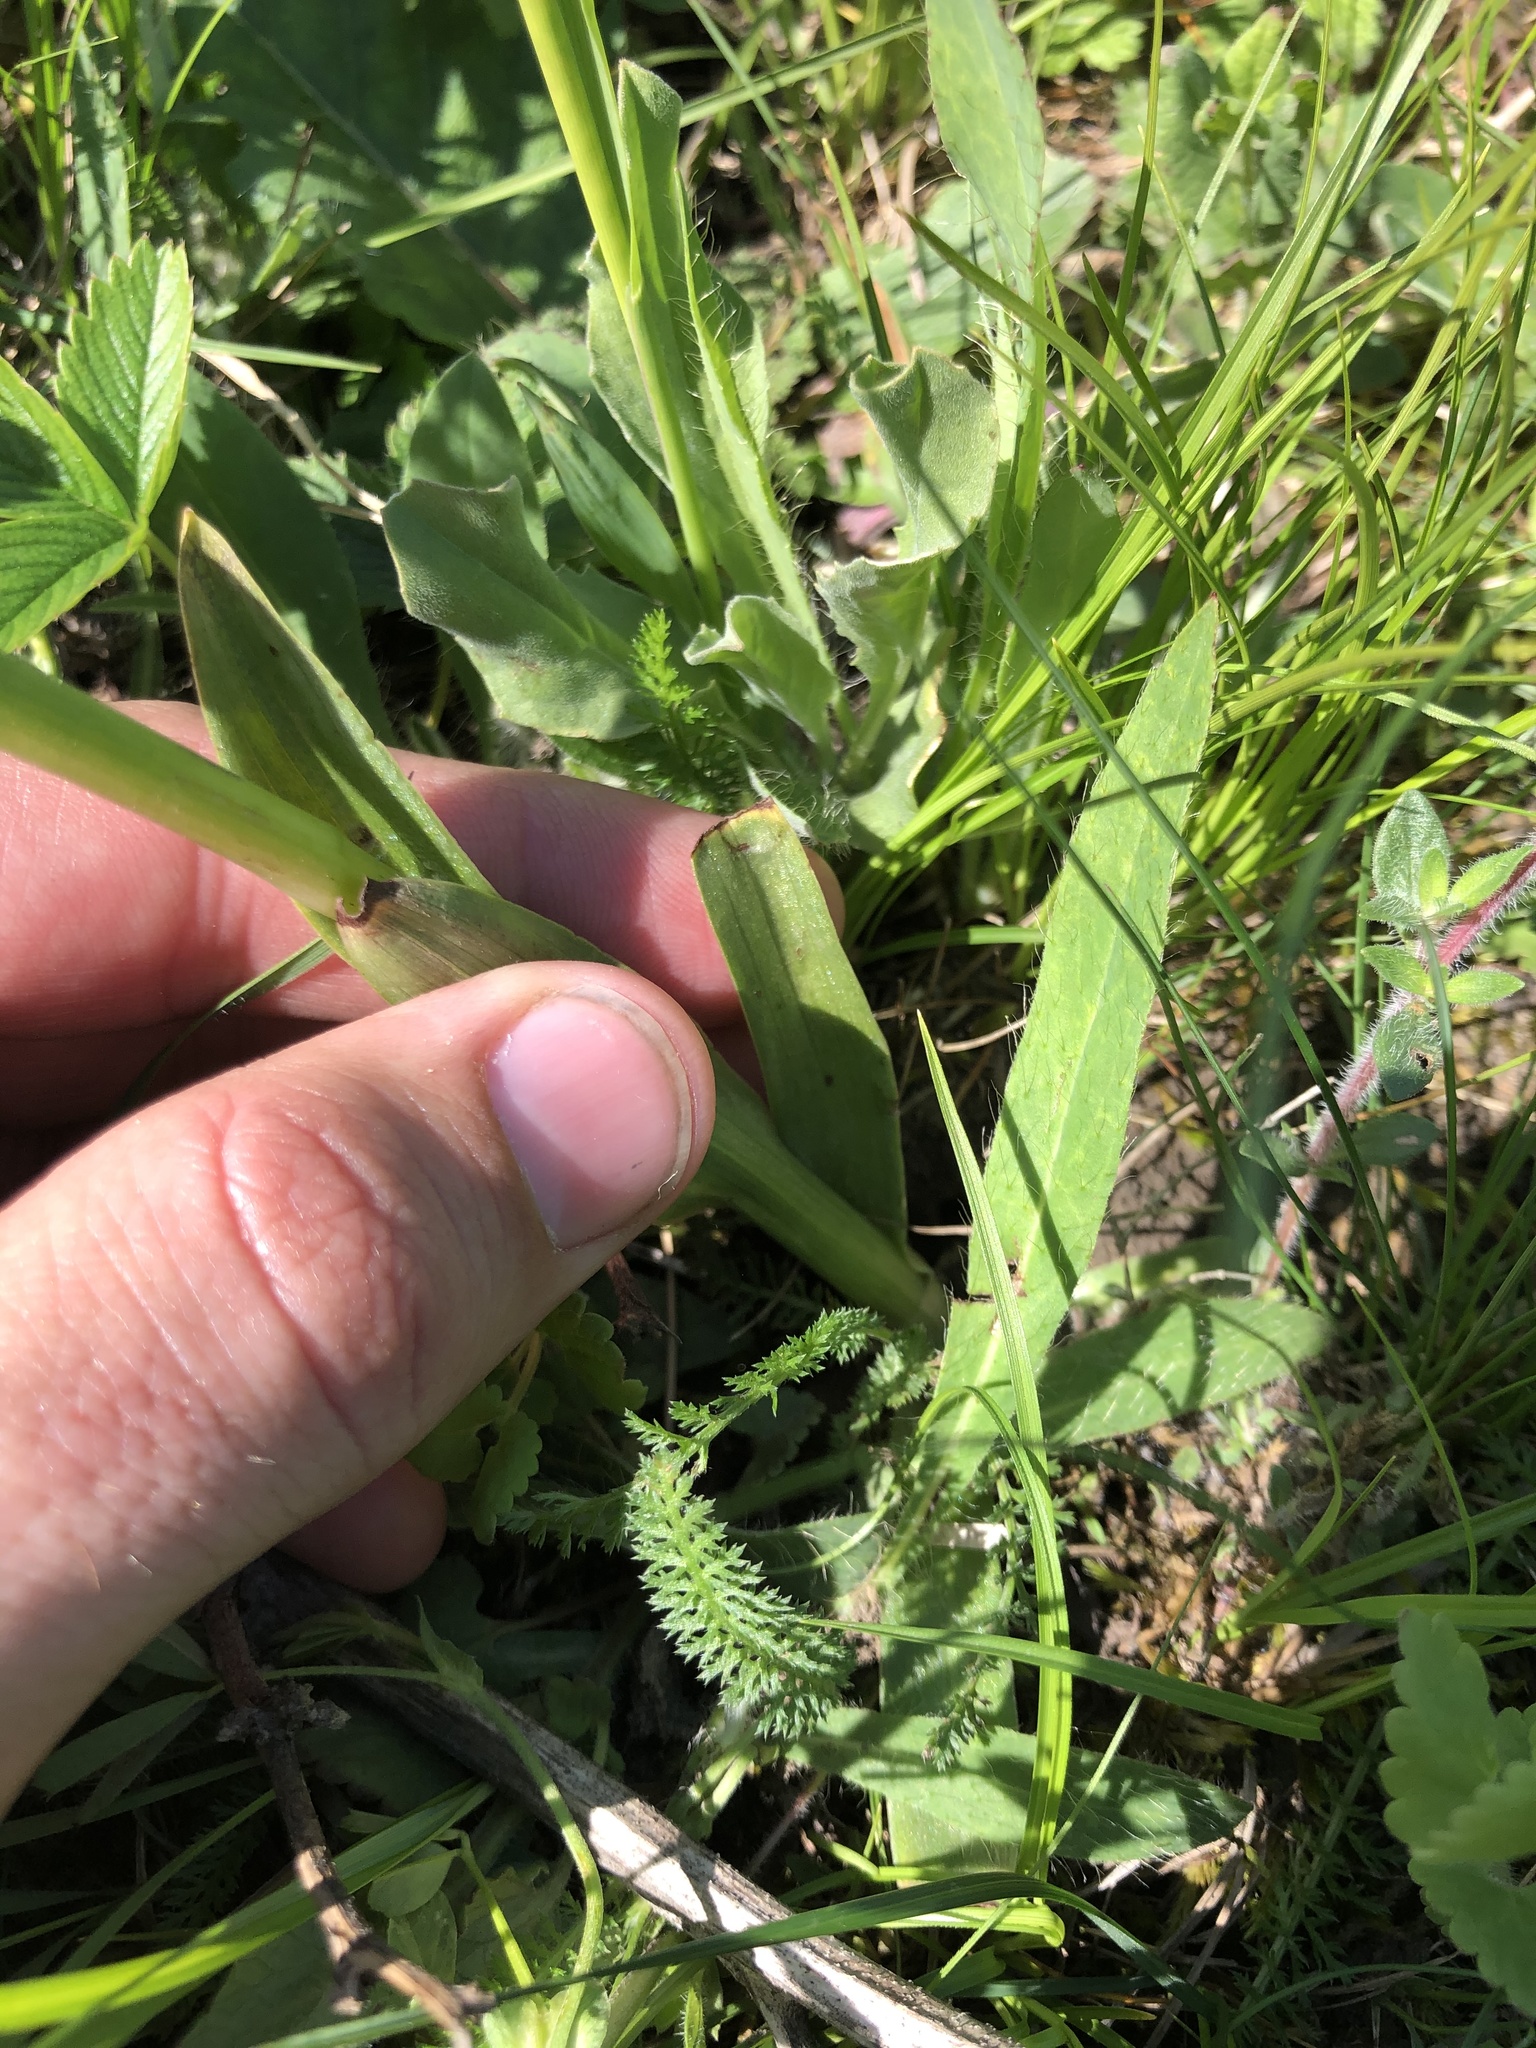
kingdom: Plantae
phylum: Tracheophyta
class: Liliopsida
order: Asparagales
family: Orchidaceae
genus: Anacamptis
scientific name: Anacamptis morio
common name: Green-winged orchid
